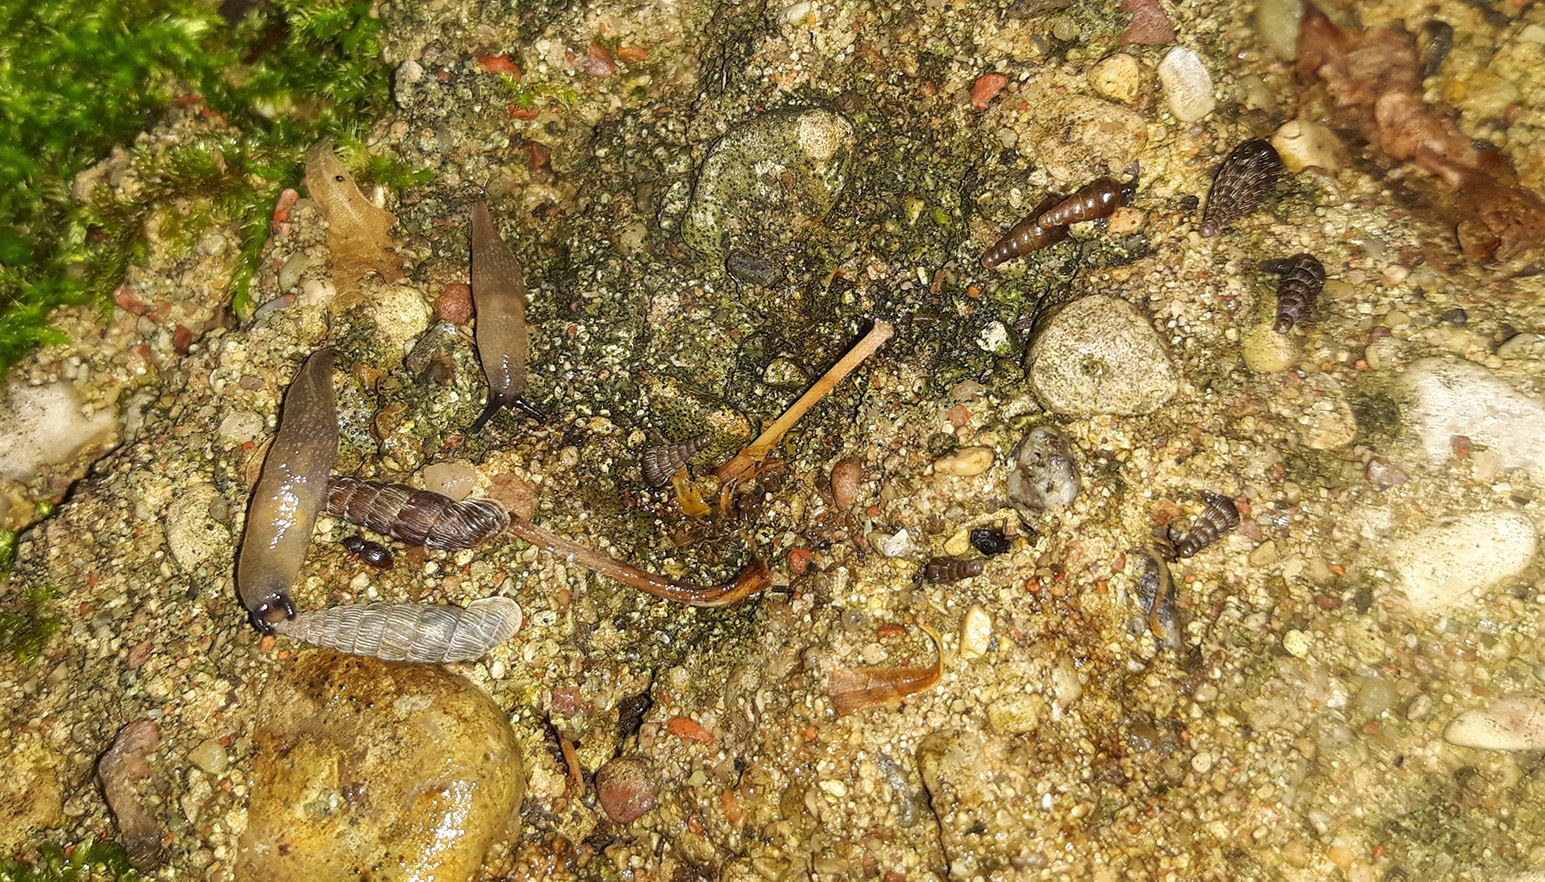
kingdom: Animalia
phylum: Mollusca
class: Gastropoda
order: Stylommatophora
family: Clausiliidae
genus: Laciniaria
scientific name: Laciniaria plicata
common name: Single-lipped door snail
